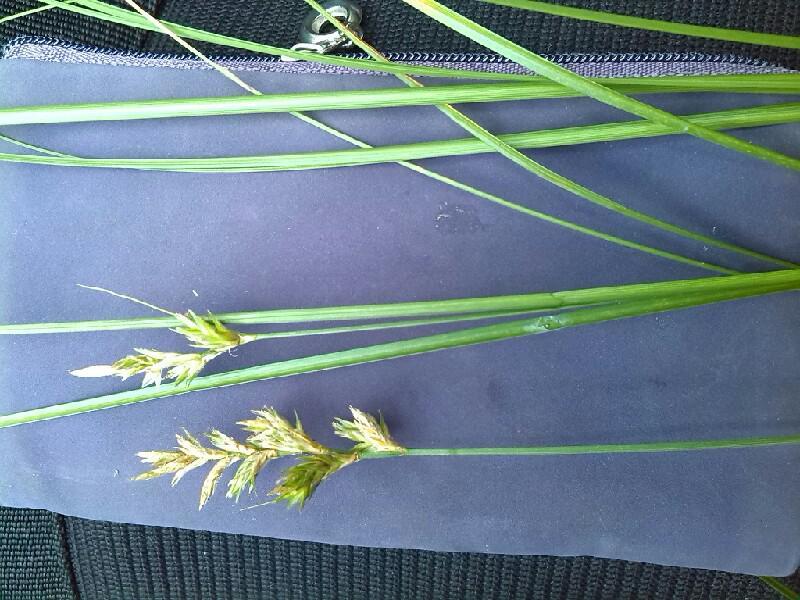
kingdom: Plantae
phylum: Tracheophyta
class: Liliopsida
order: Poales
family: Cyperaceae
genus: Carex
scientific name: Carex pseudobrizoides
